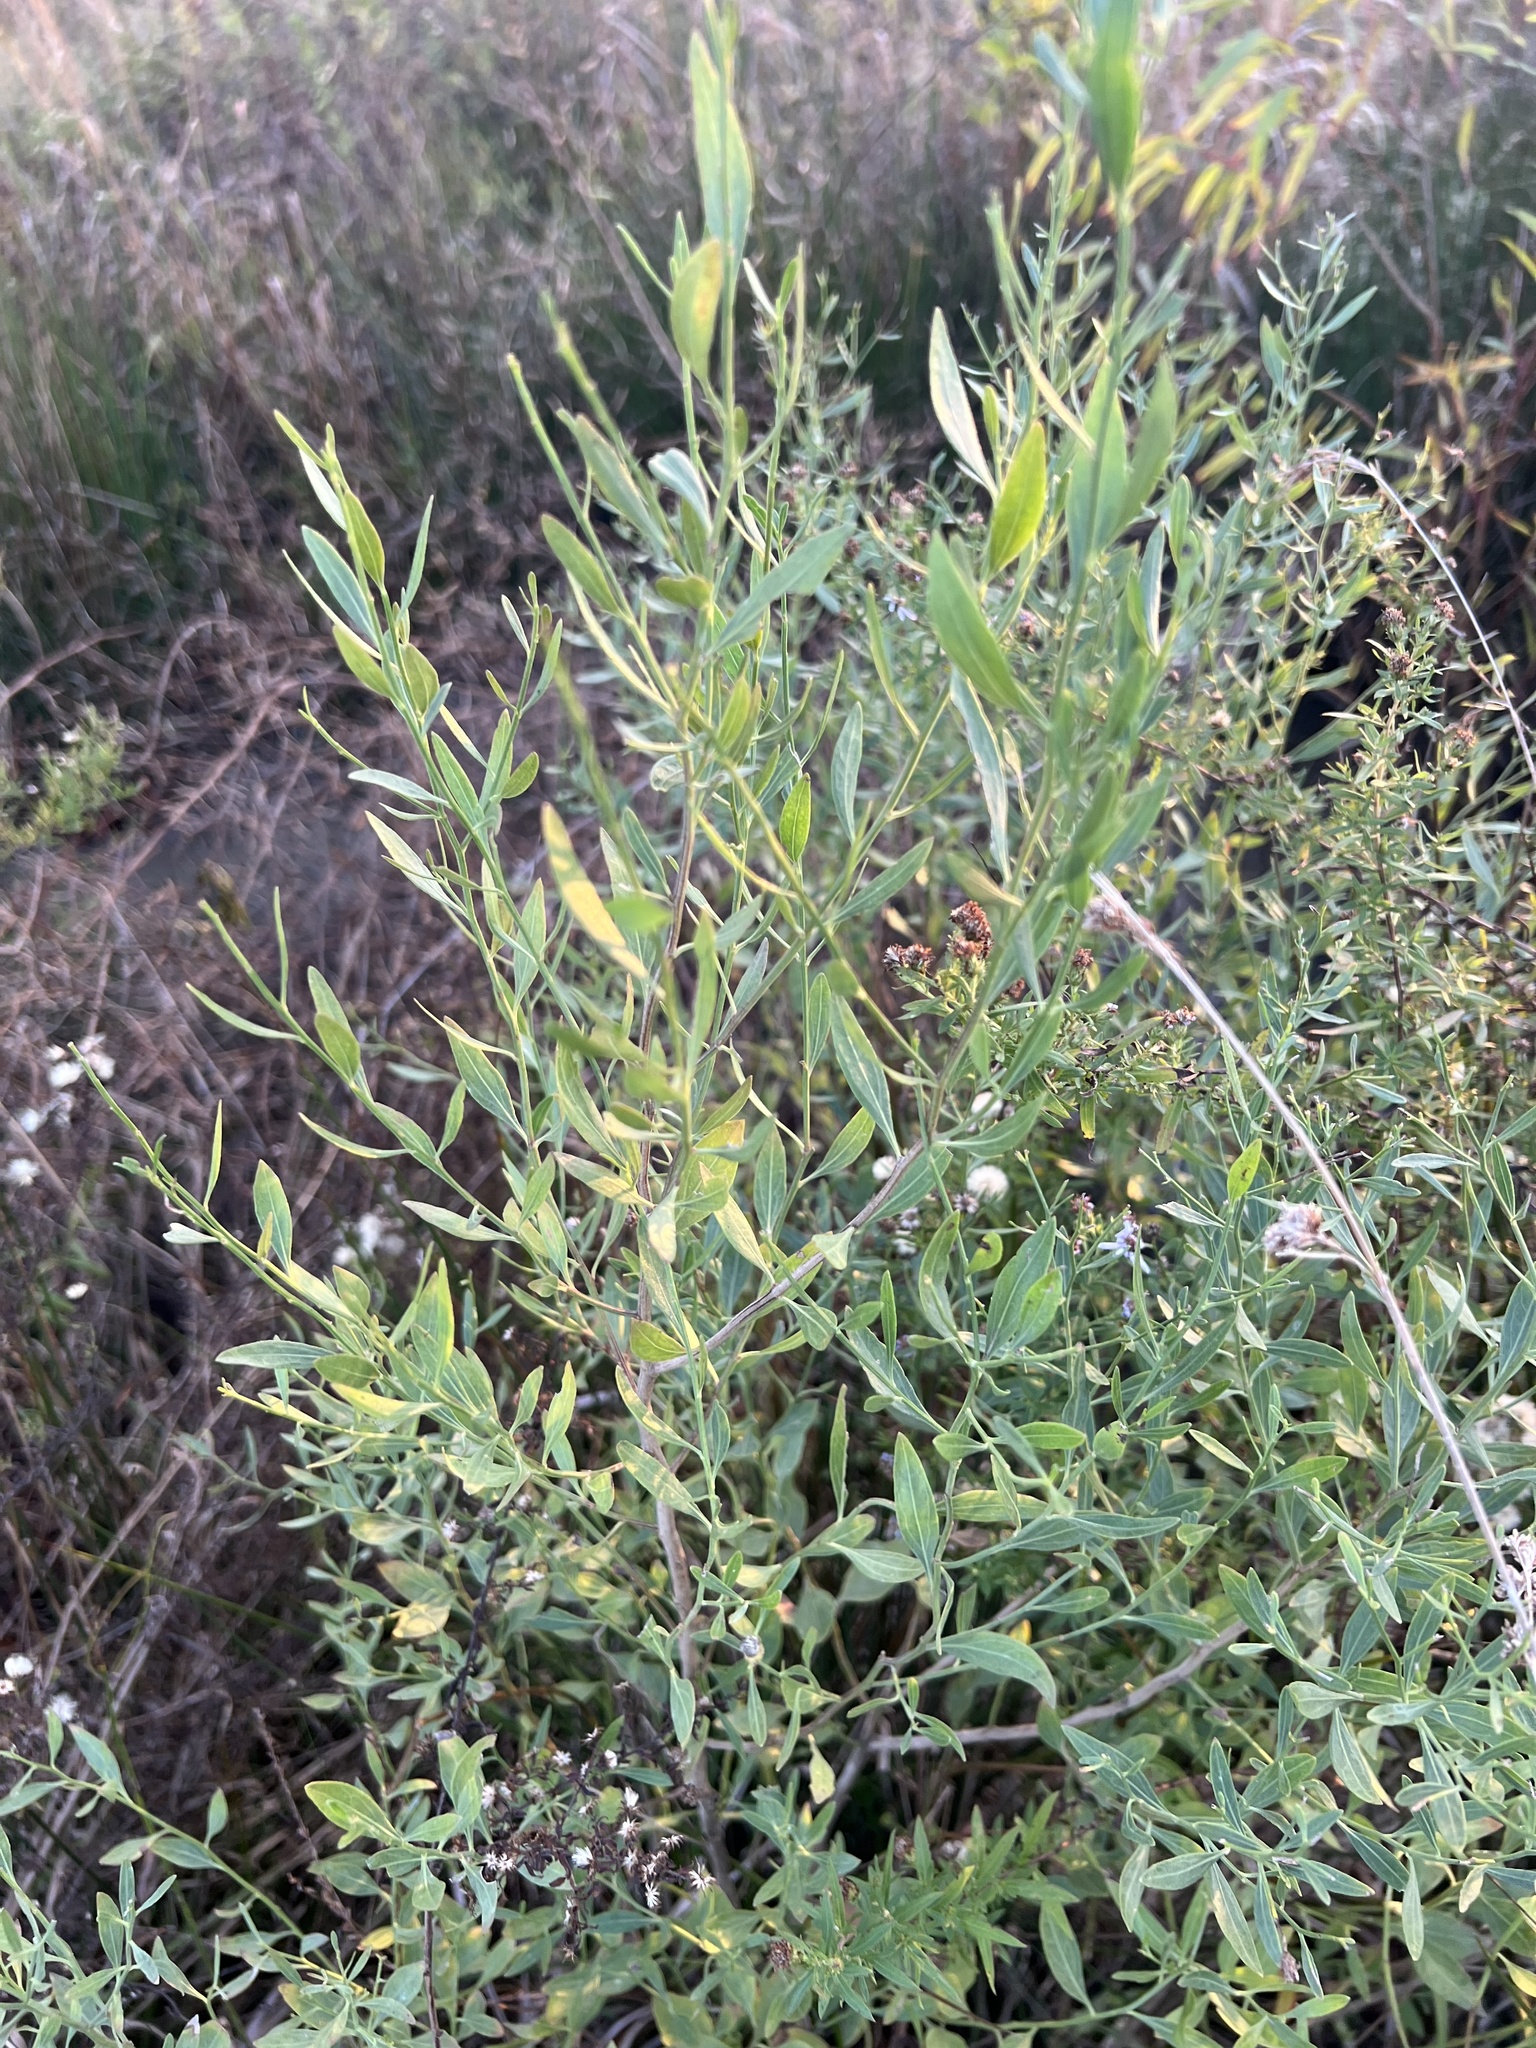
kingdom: Plantae
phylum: Tracheophyta
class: Magnoliopsida
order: Asterales
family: Asteraceae
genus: Baccharis
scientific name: Baccharis halimifolia
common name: Eastern baccharis
